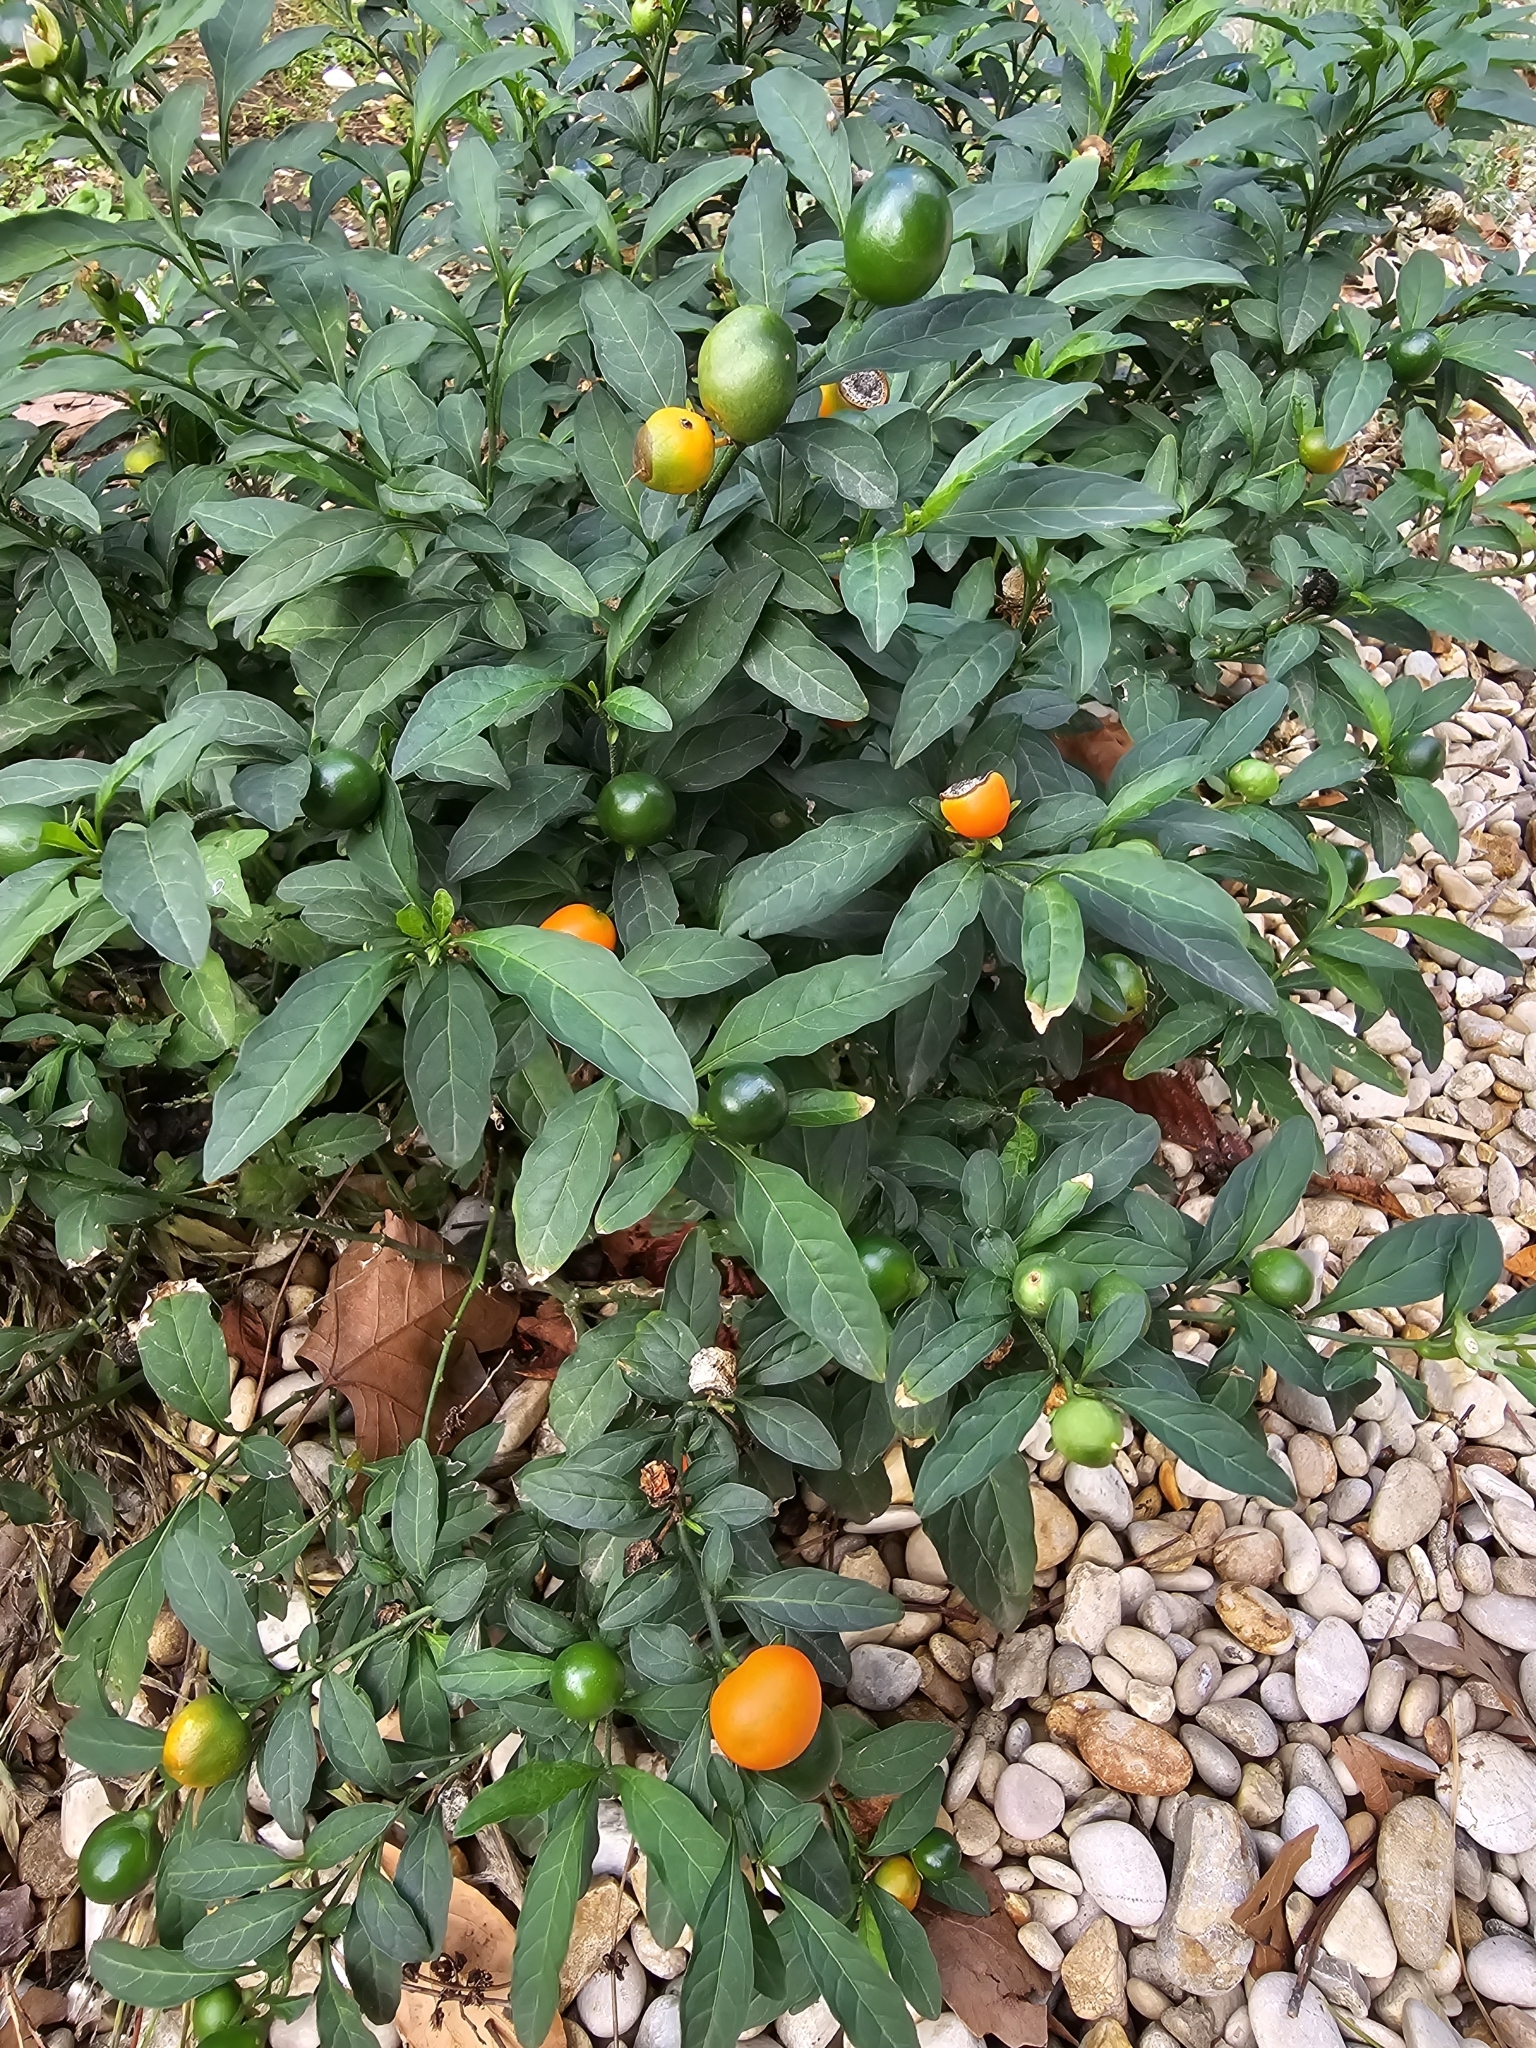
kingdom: Plantae
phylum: Tracheophyta
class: Magnoliopsida
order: Solanales
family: Solanaceae
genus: Solanum
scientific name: Solanum pseudocapsicum
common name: Jerusalem cherry
